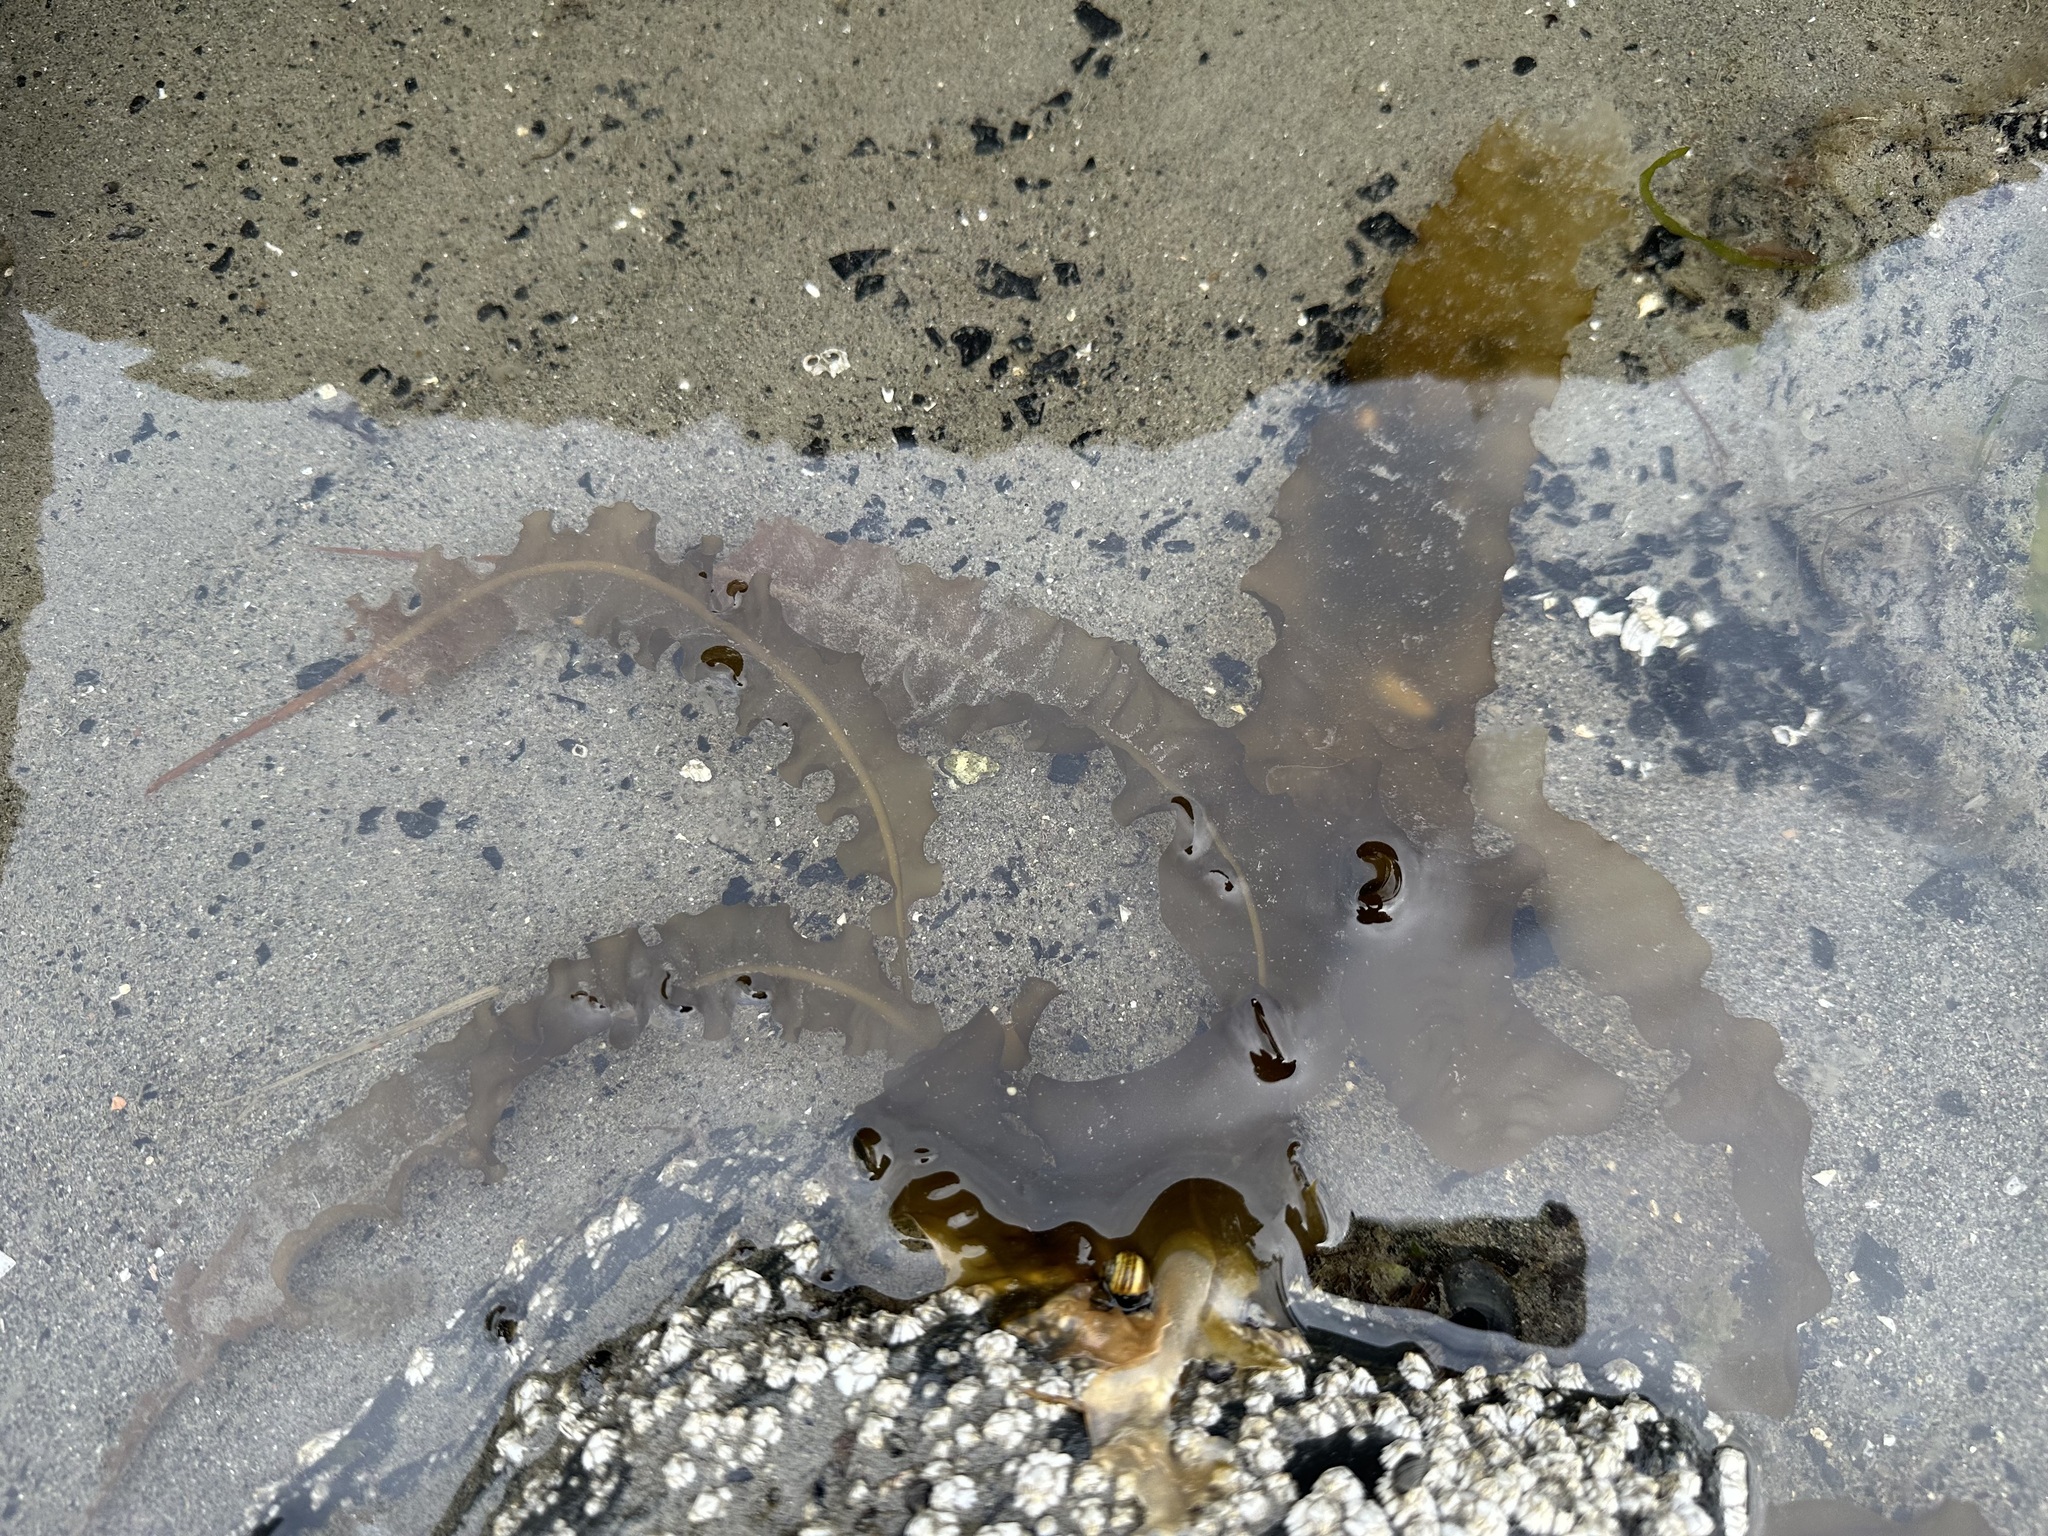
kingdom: Chromista
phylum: Ochrophyta
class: Phaeophyceae
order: Laminariales
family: Alariaceae
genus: Alaria
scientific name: Alaria marginata
